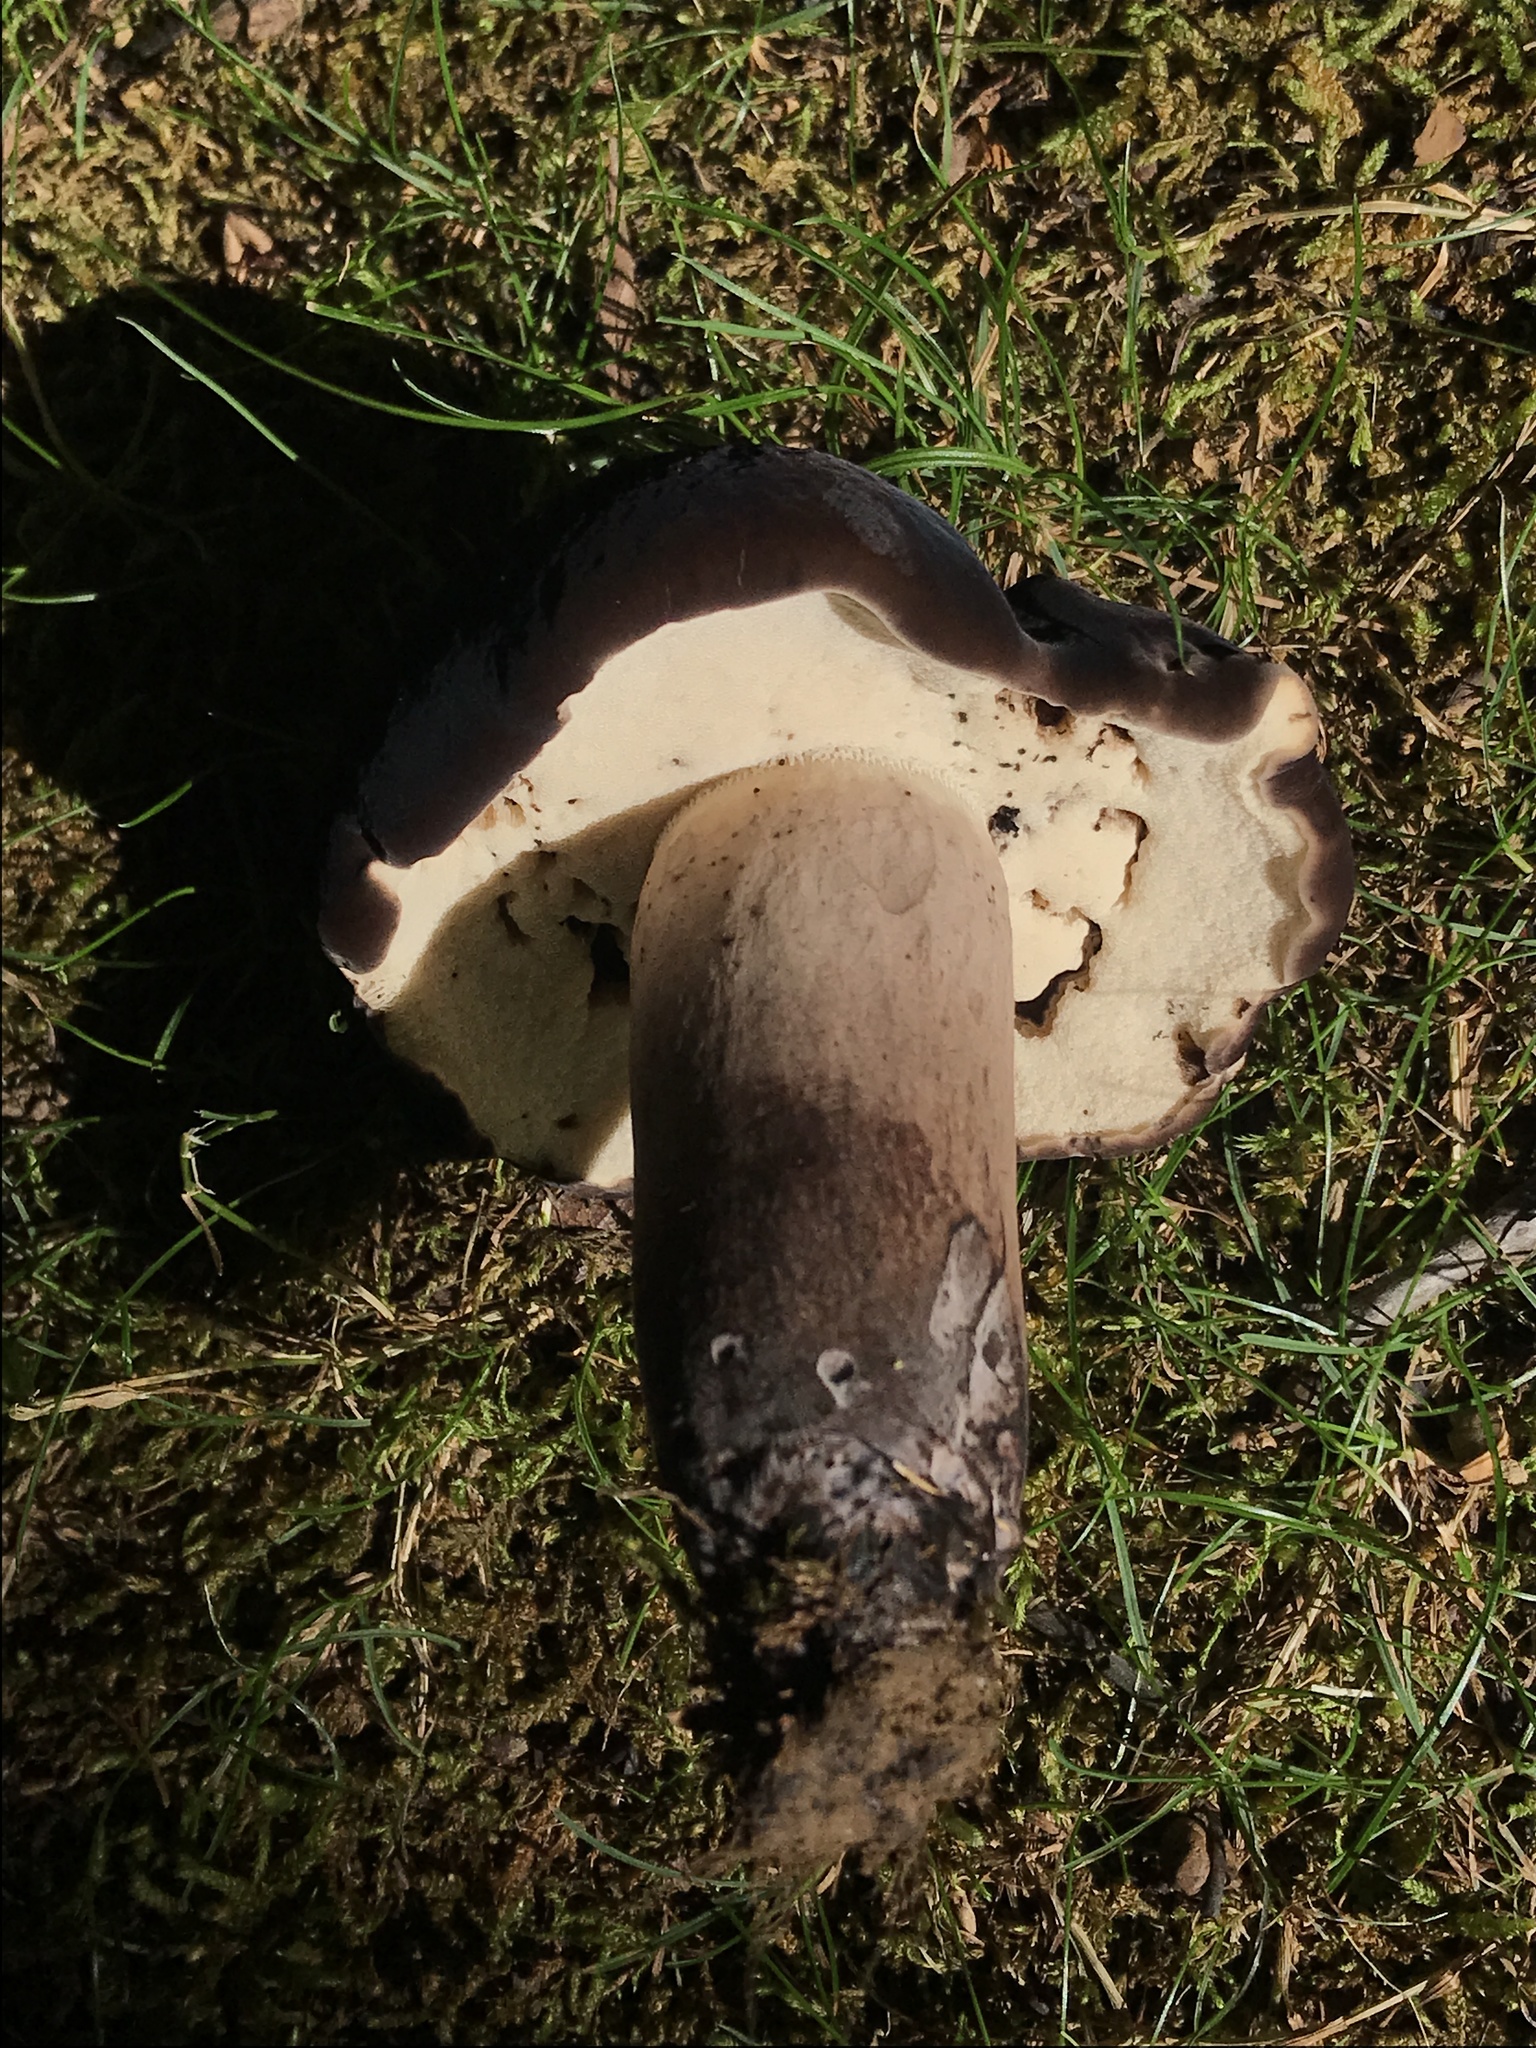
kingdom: Fungi
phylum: Basidiomycota
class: Agaricomycetes
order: Boletales
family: Boletaceae
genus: Tylopilus
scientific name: Tylopilus alboater
